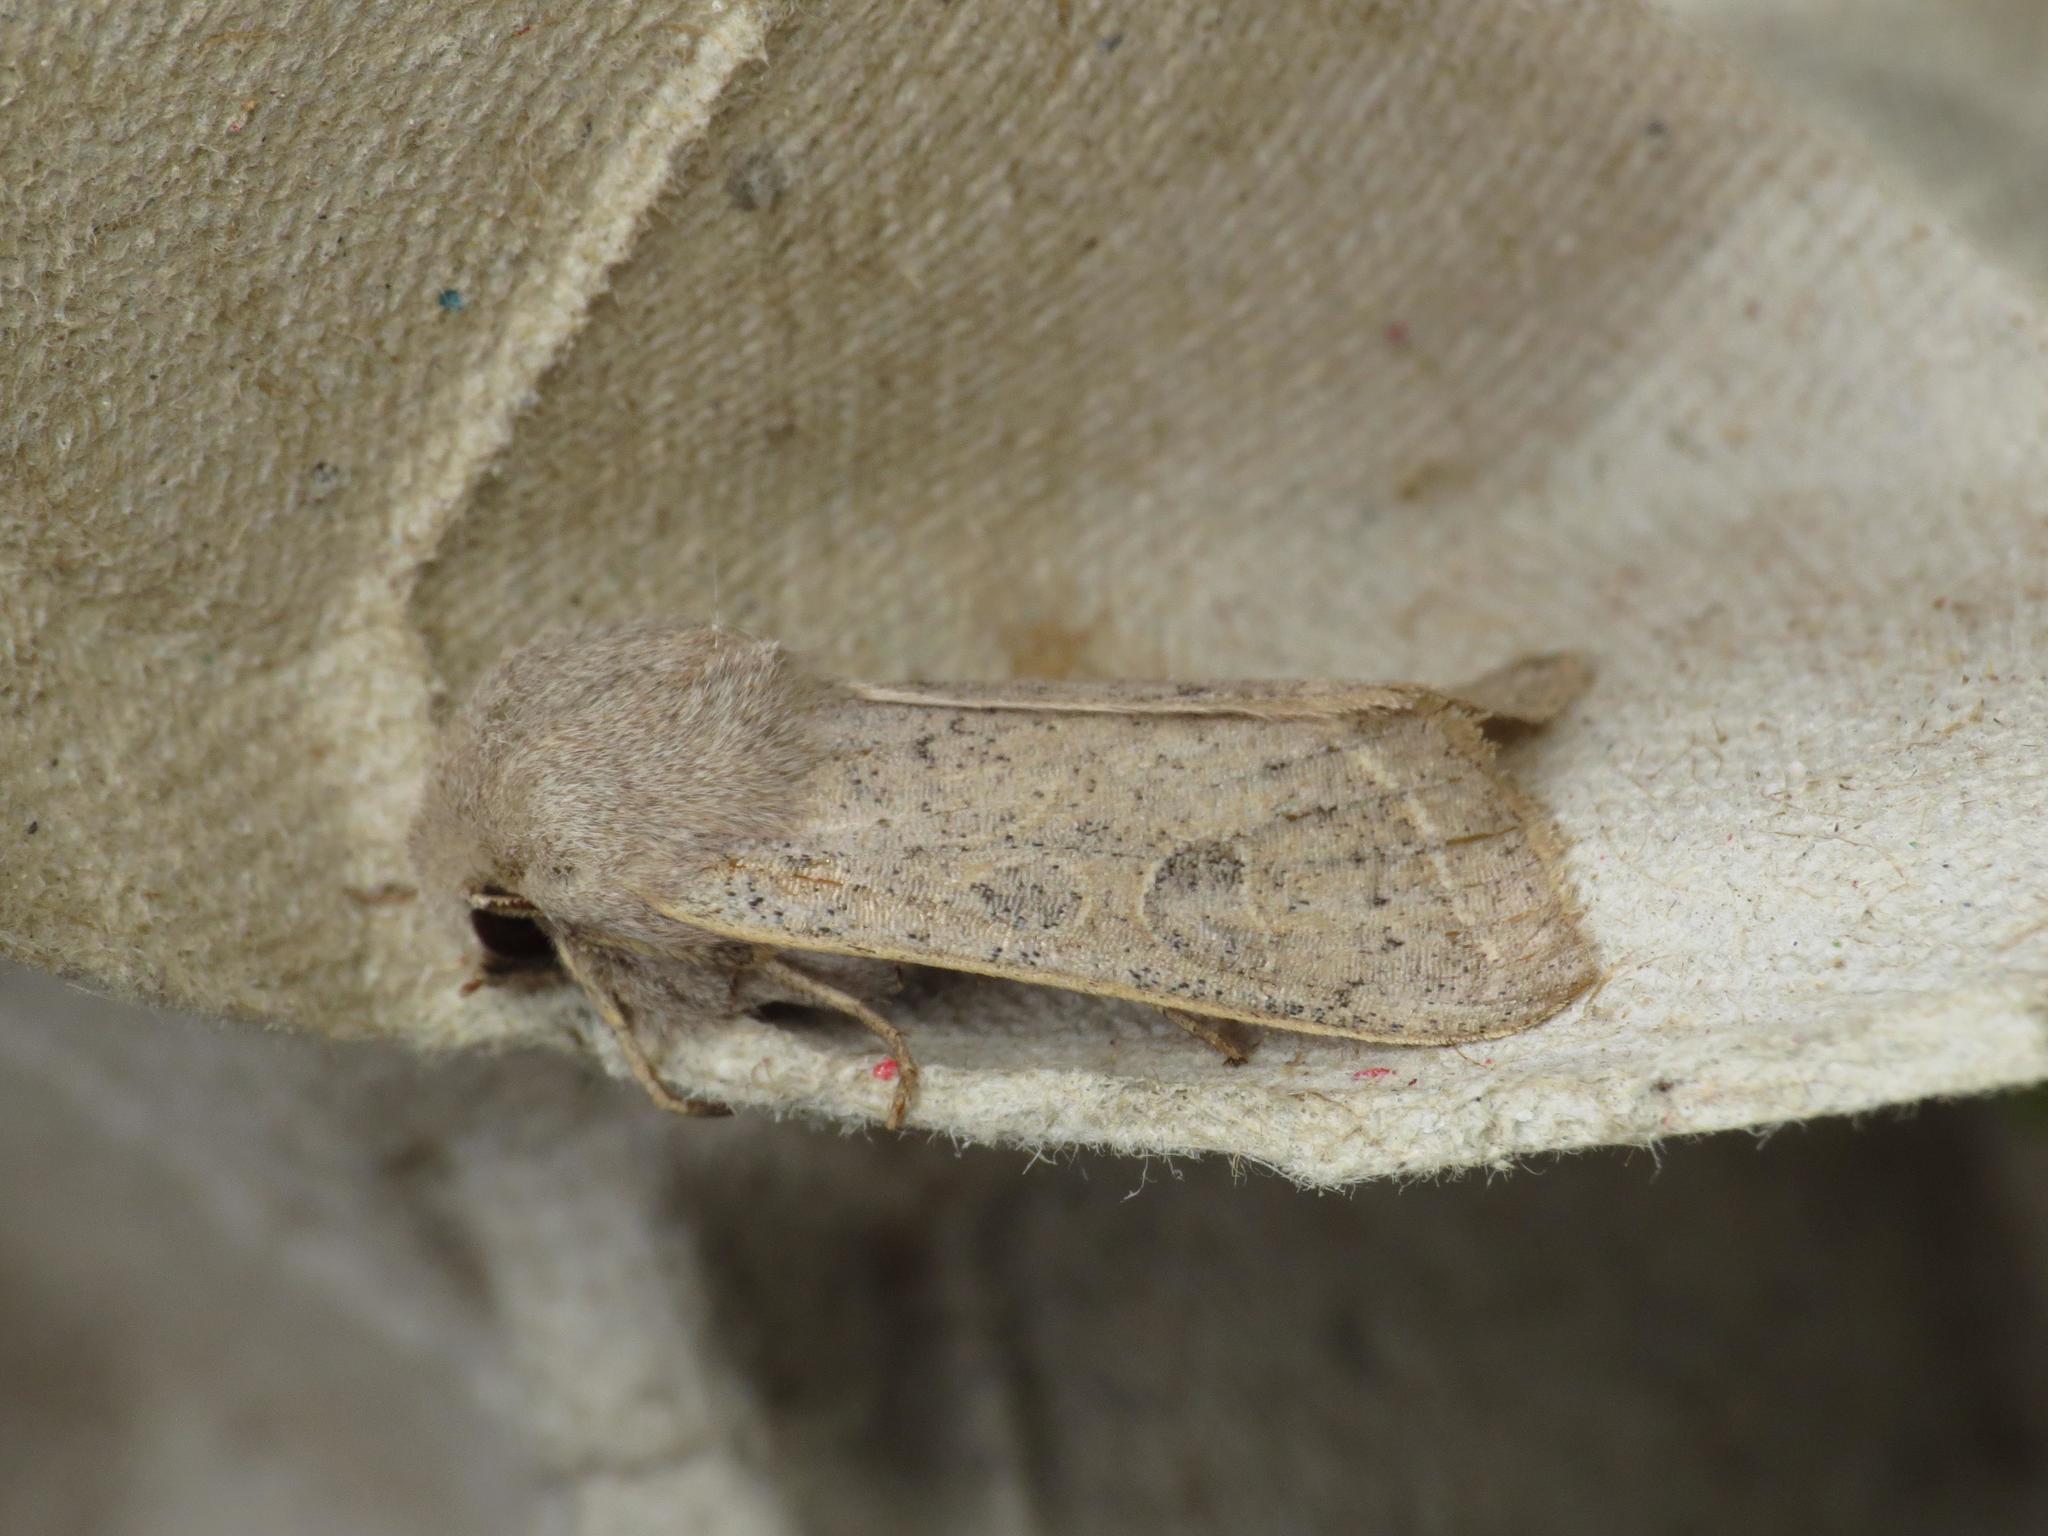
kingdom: Animalia
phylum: Arthropoda
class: Insecta
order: Lepidoptera
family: Noctuidae
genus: Orthosia
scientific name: Orthosia gracilis
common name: Powdered quaker
